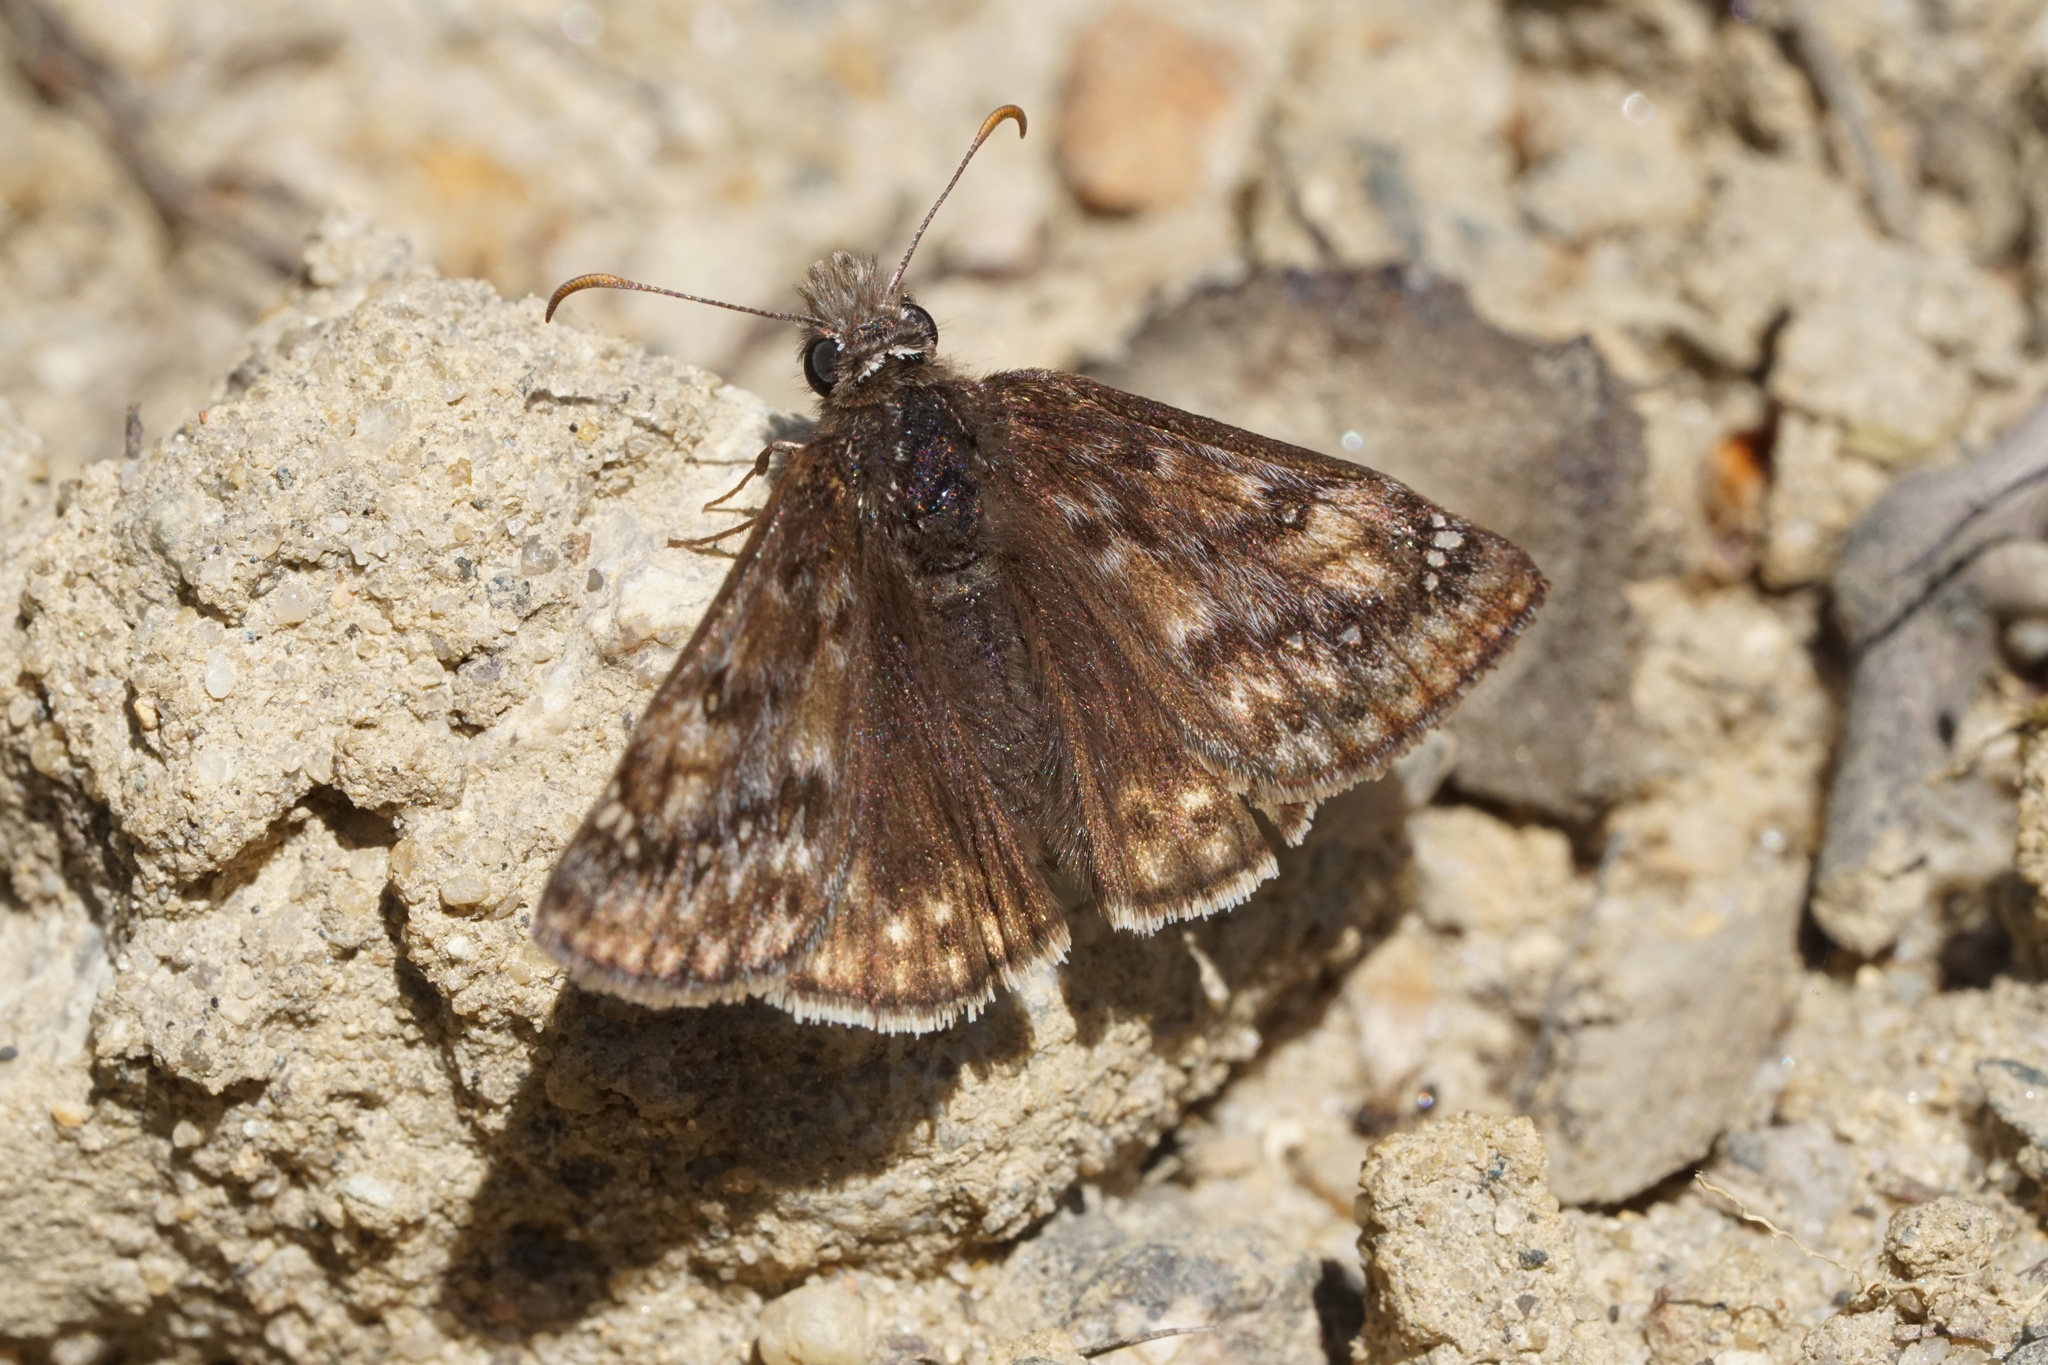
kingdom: Animalia
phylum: Arthropoda
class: Insecta
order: Lepidoptera
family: Hesperiidae
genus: Erynnis
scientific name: Erynnis juvenalis
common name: Juvenal's duskywing
